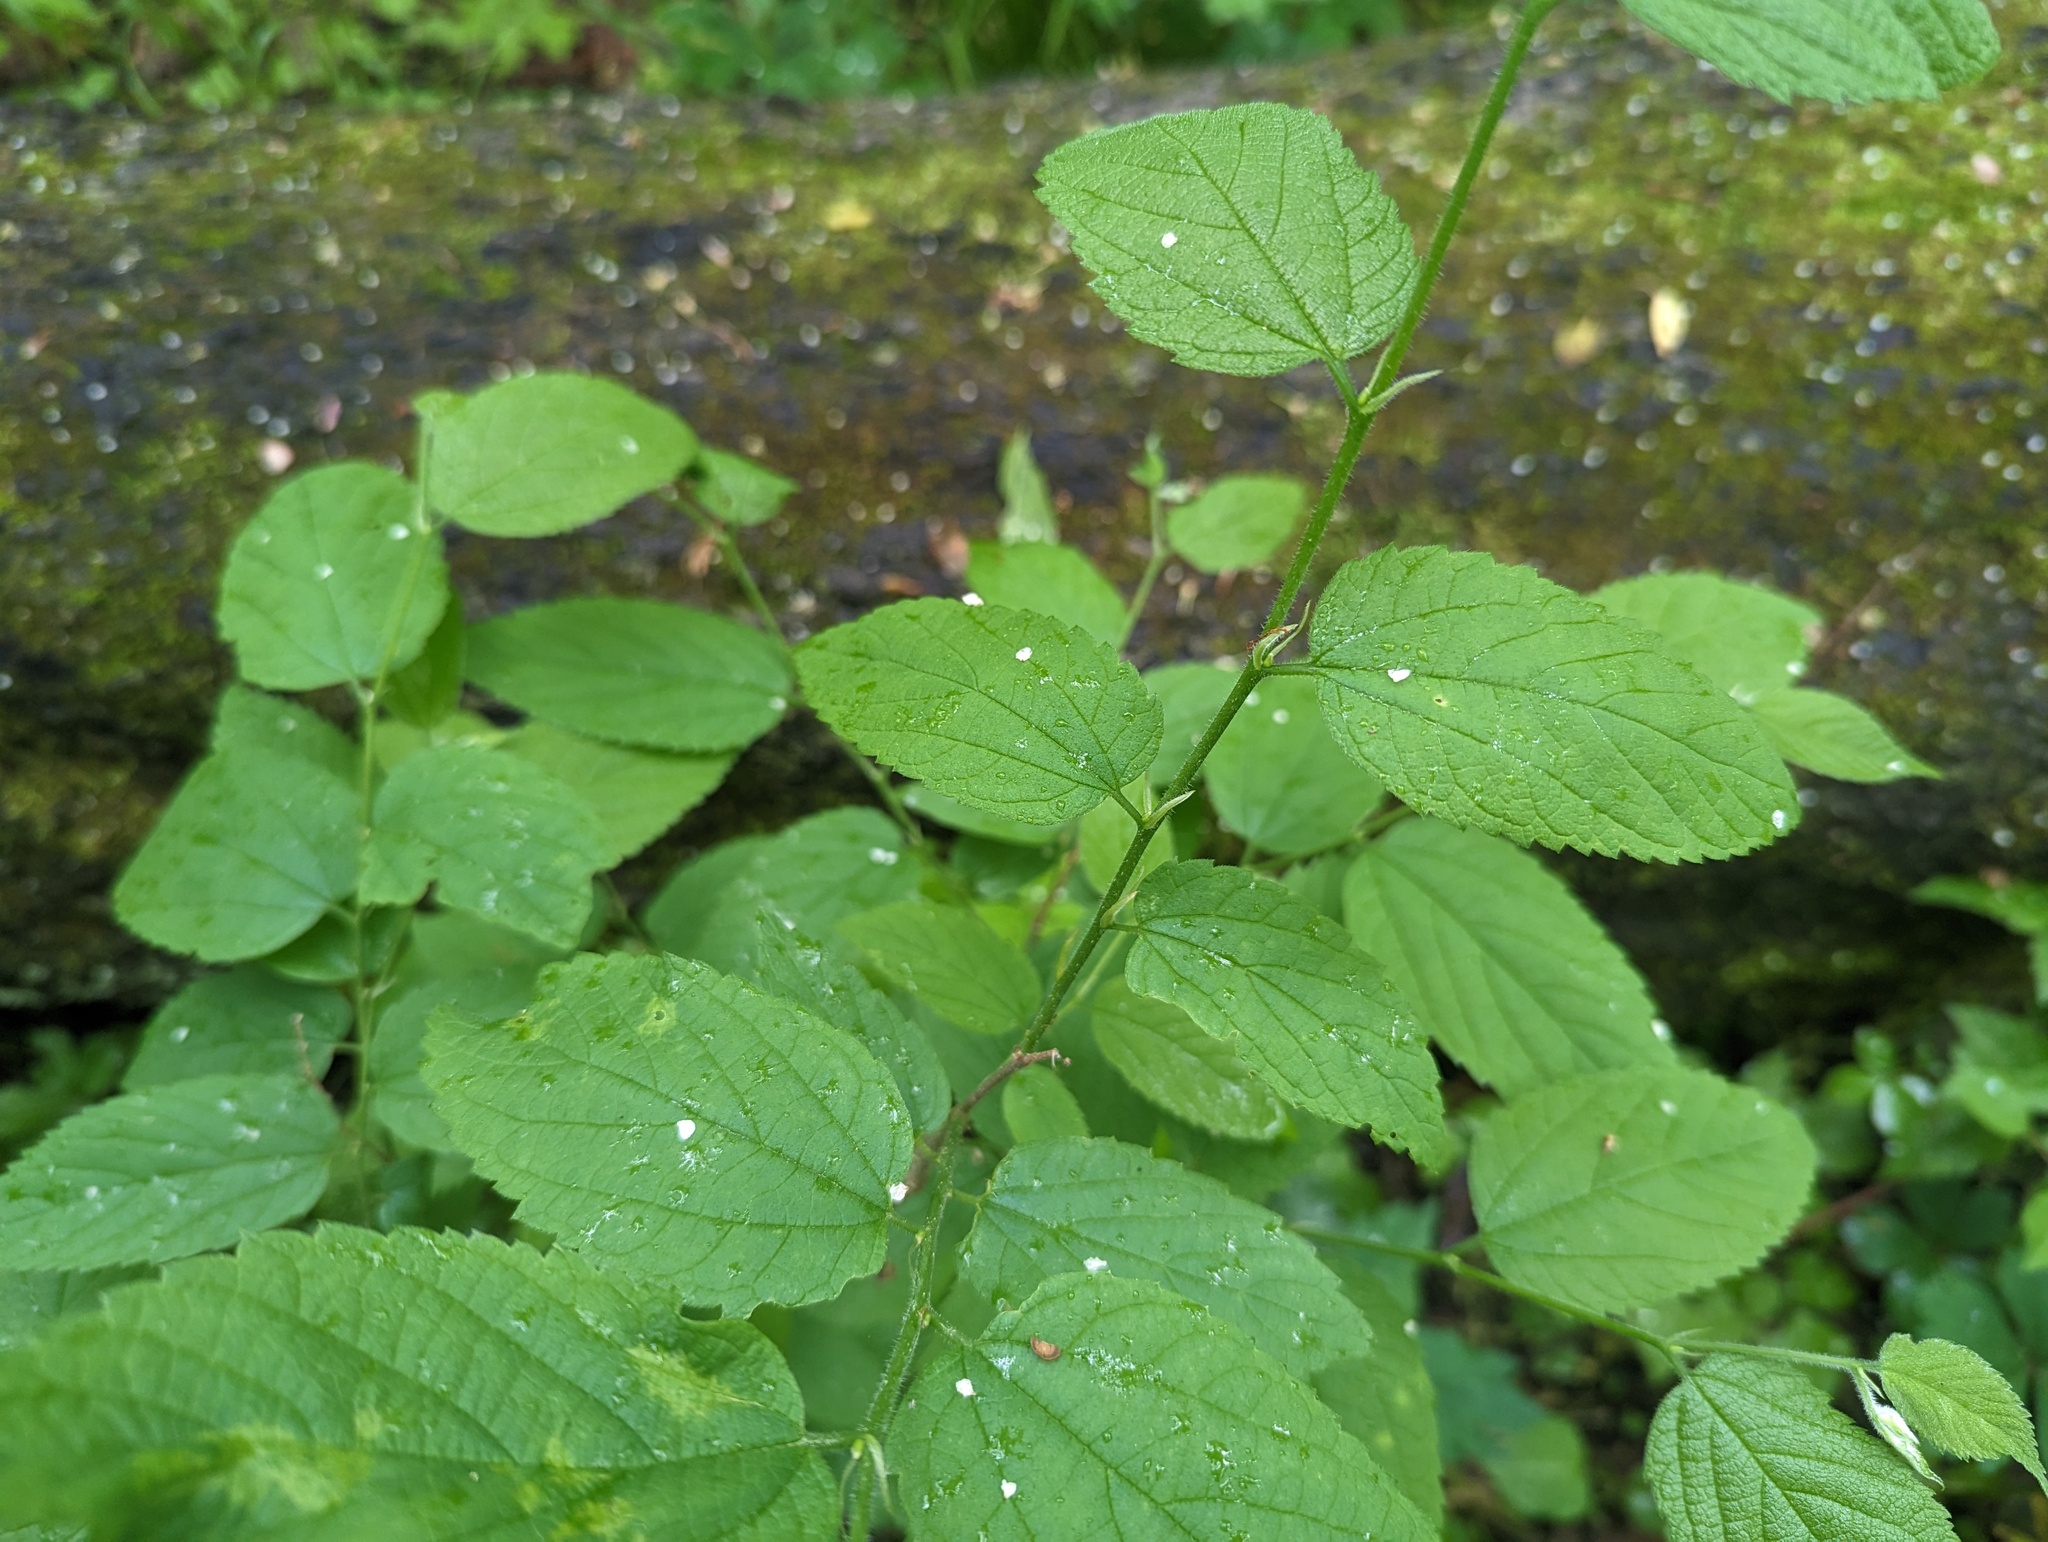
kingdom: Plantae
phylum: Tracheophyta
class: Magnoliopsida
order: Rosales
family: Cannabaceae
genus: Celtis
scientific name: Celtis occidentalis
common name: Common hackberry
